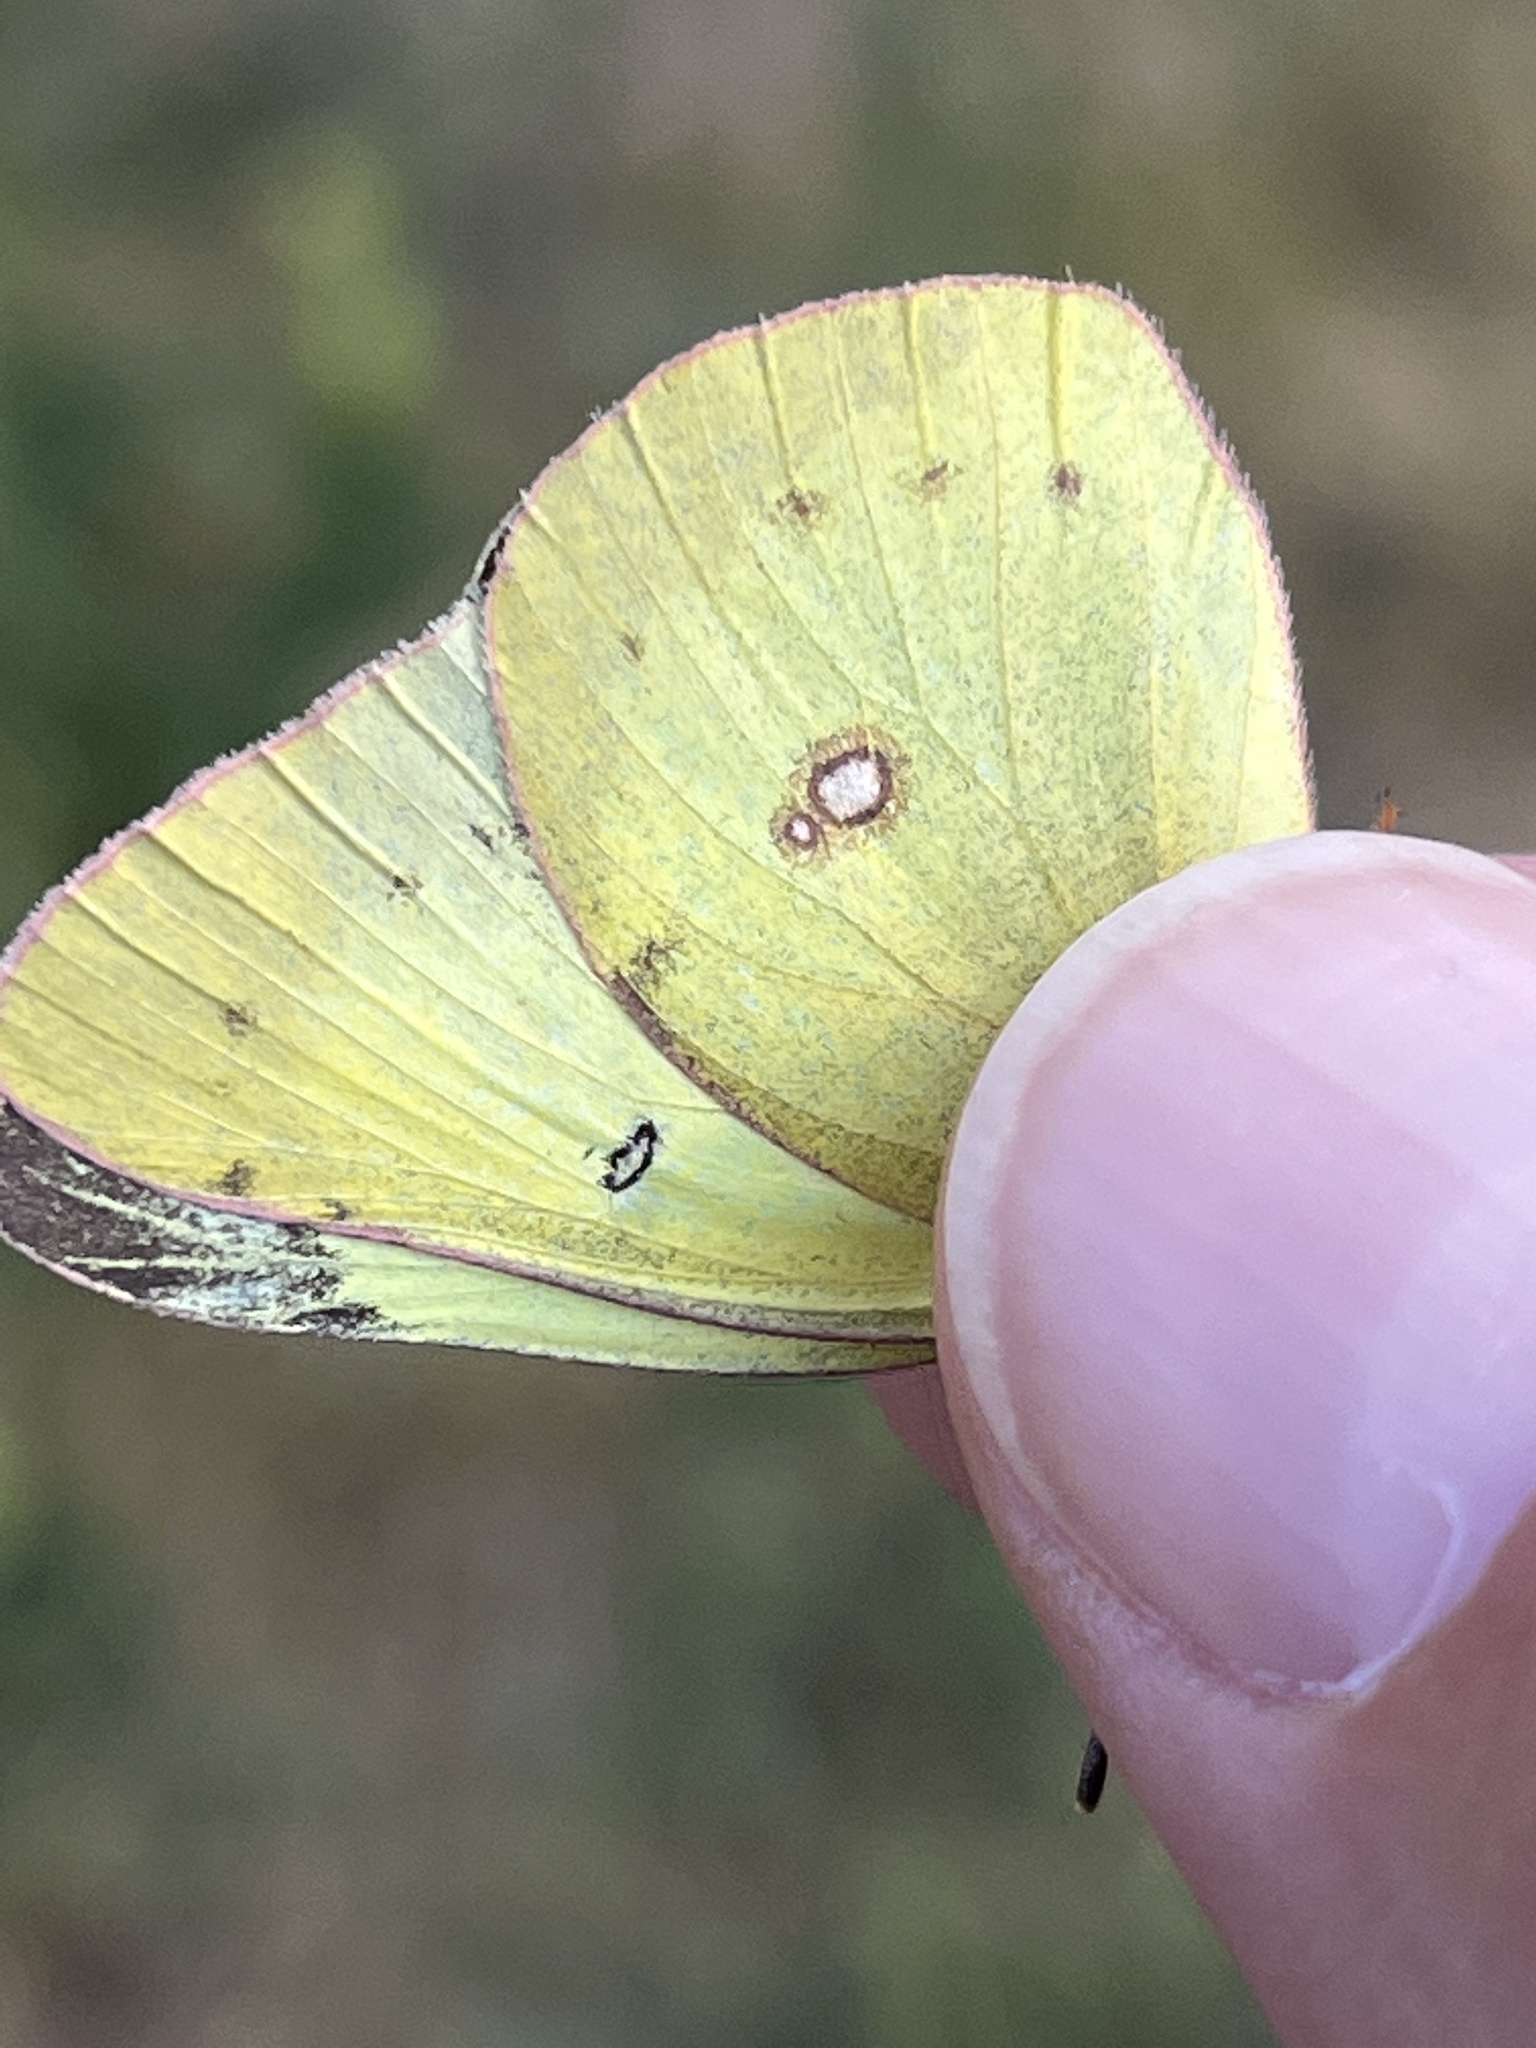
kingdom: Animalia
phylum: Arthropoda
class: Insecta
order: Lepidoptera
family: Pieridae
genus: Colias
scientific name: Colias philodice
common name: Clouded sulphur
